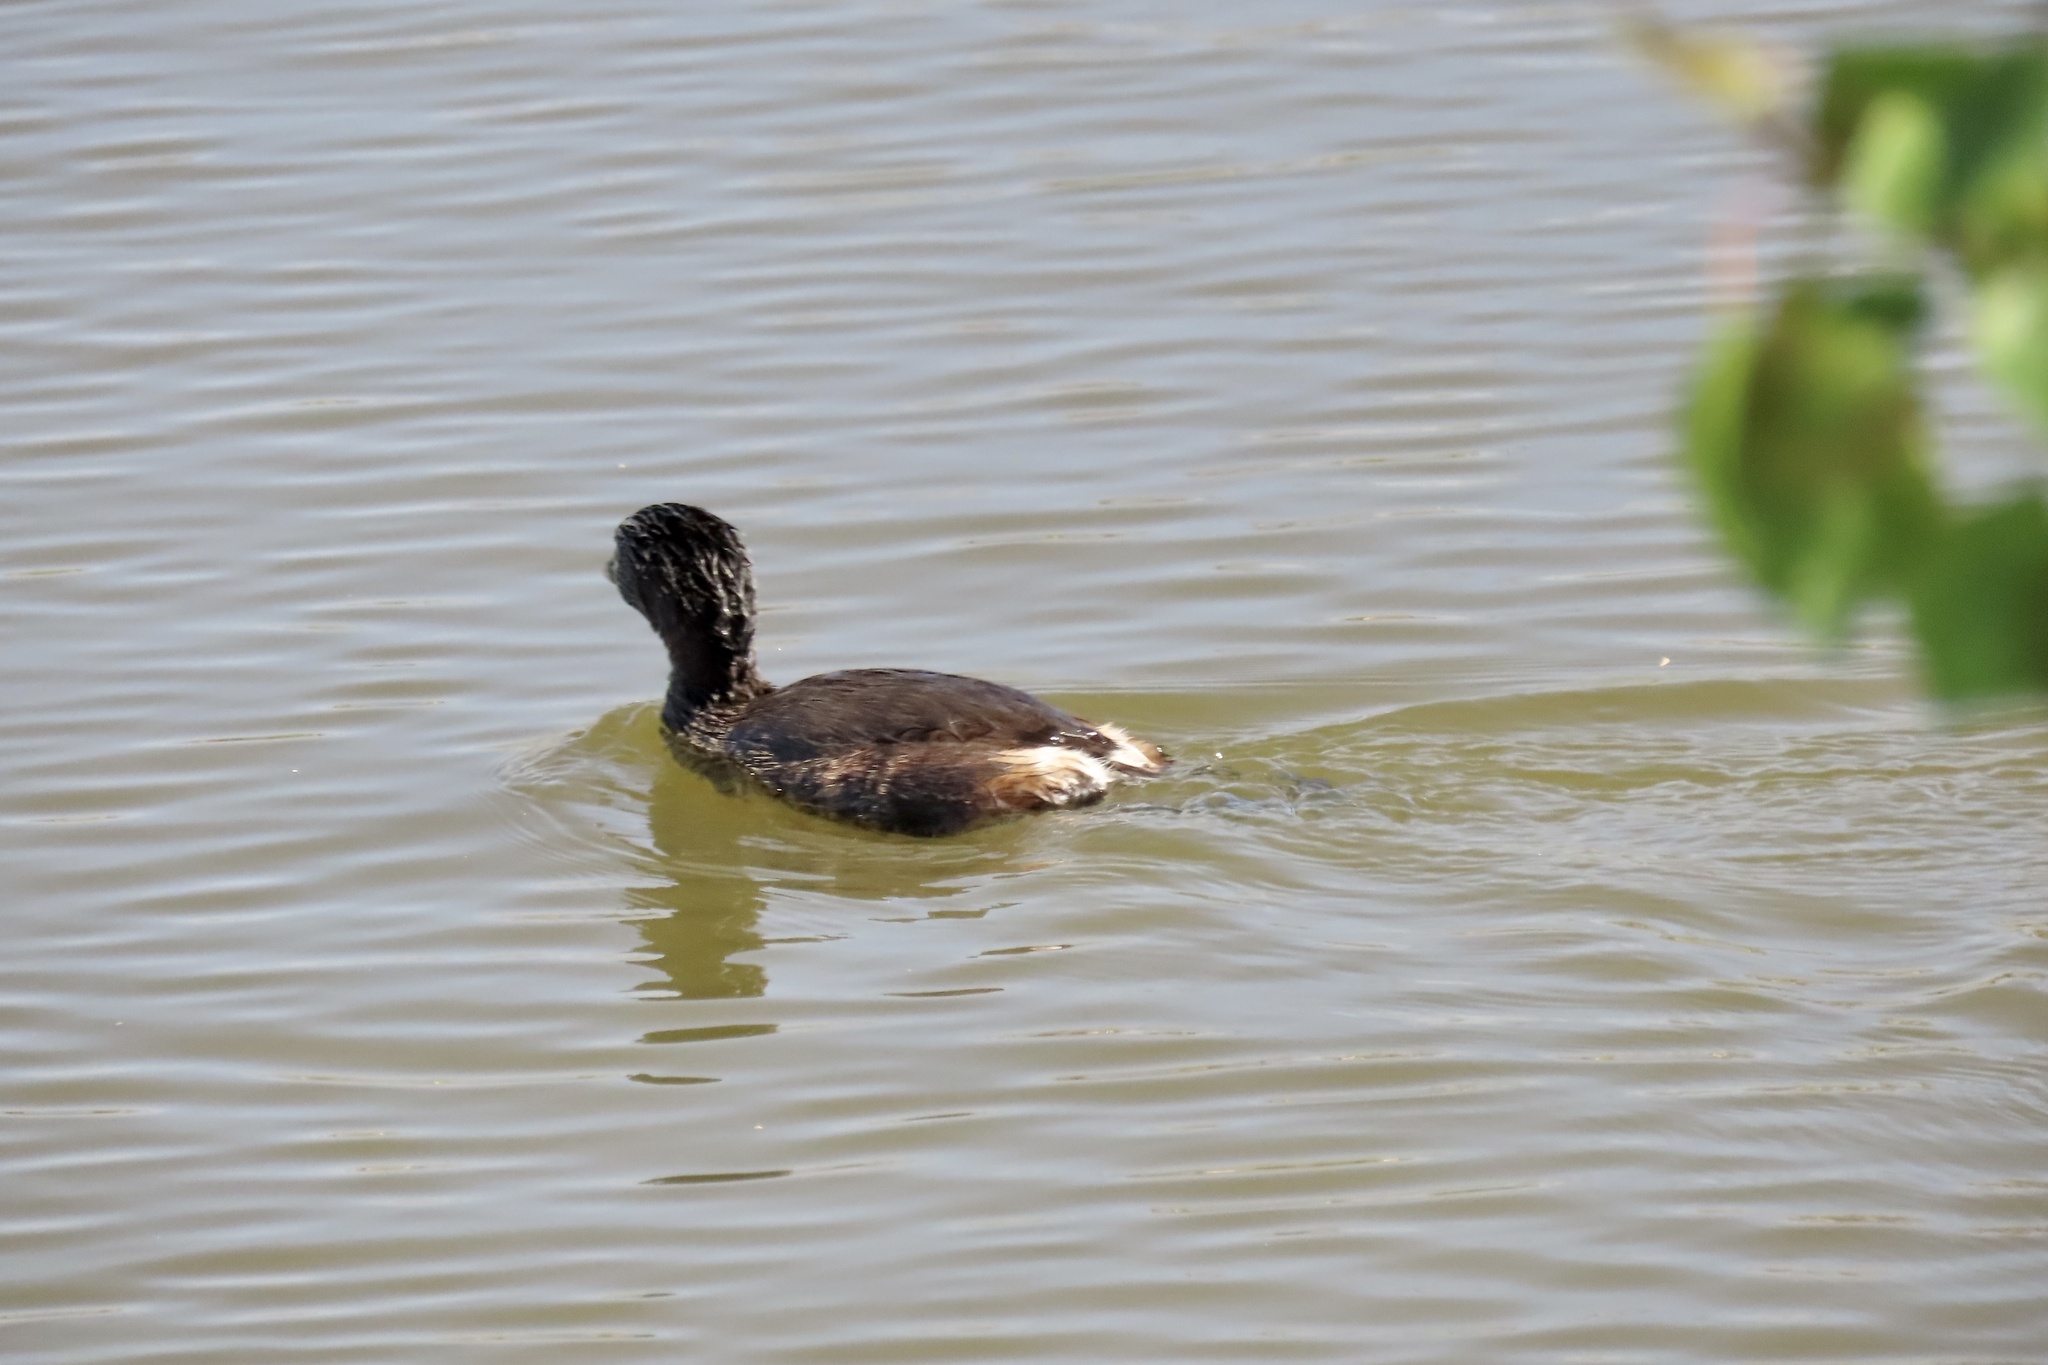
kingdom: Animalia
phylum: Chordata
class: Aves
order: Podicipediformes
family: Podicipedidae
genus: Podilymbus
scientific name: Podilymbus podiceps
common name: Pied-billed grebe
